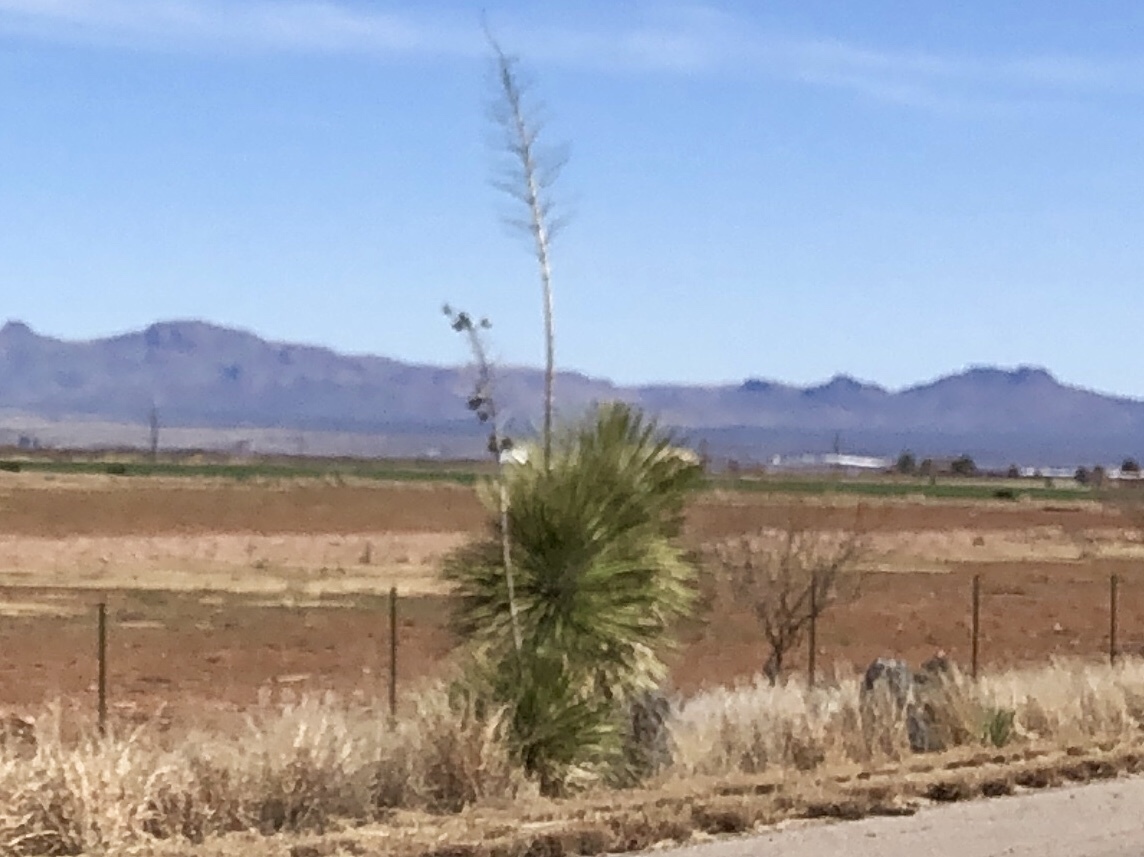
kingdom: Plantae
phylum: Tracheophyta
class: Liliopsida
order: Asparagales
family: Asparagaceae
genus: Yucca
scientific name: Yucca elata
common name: Palmella
